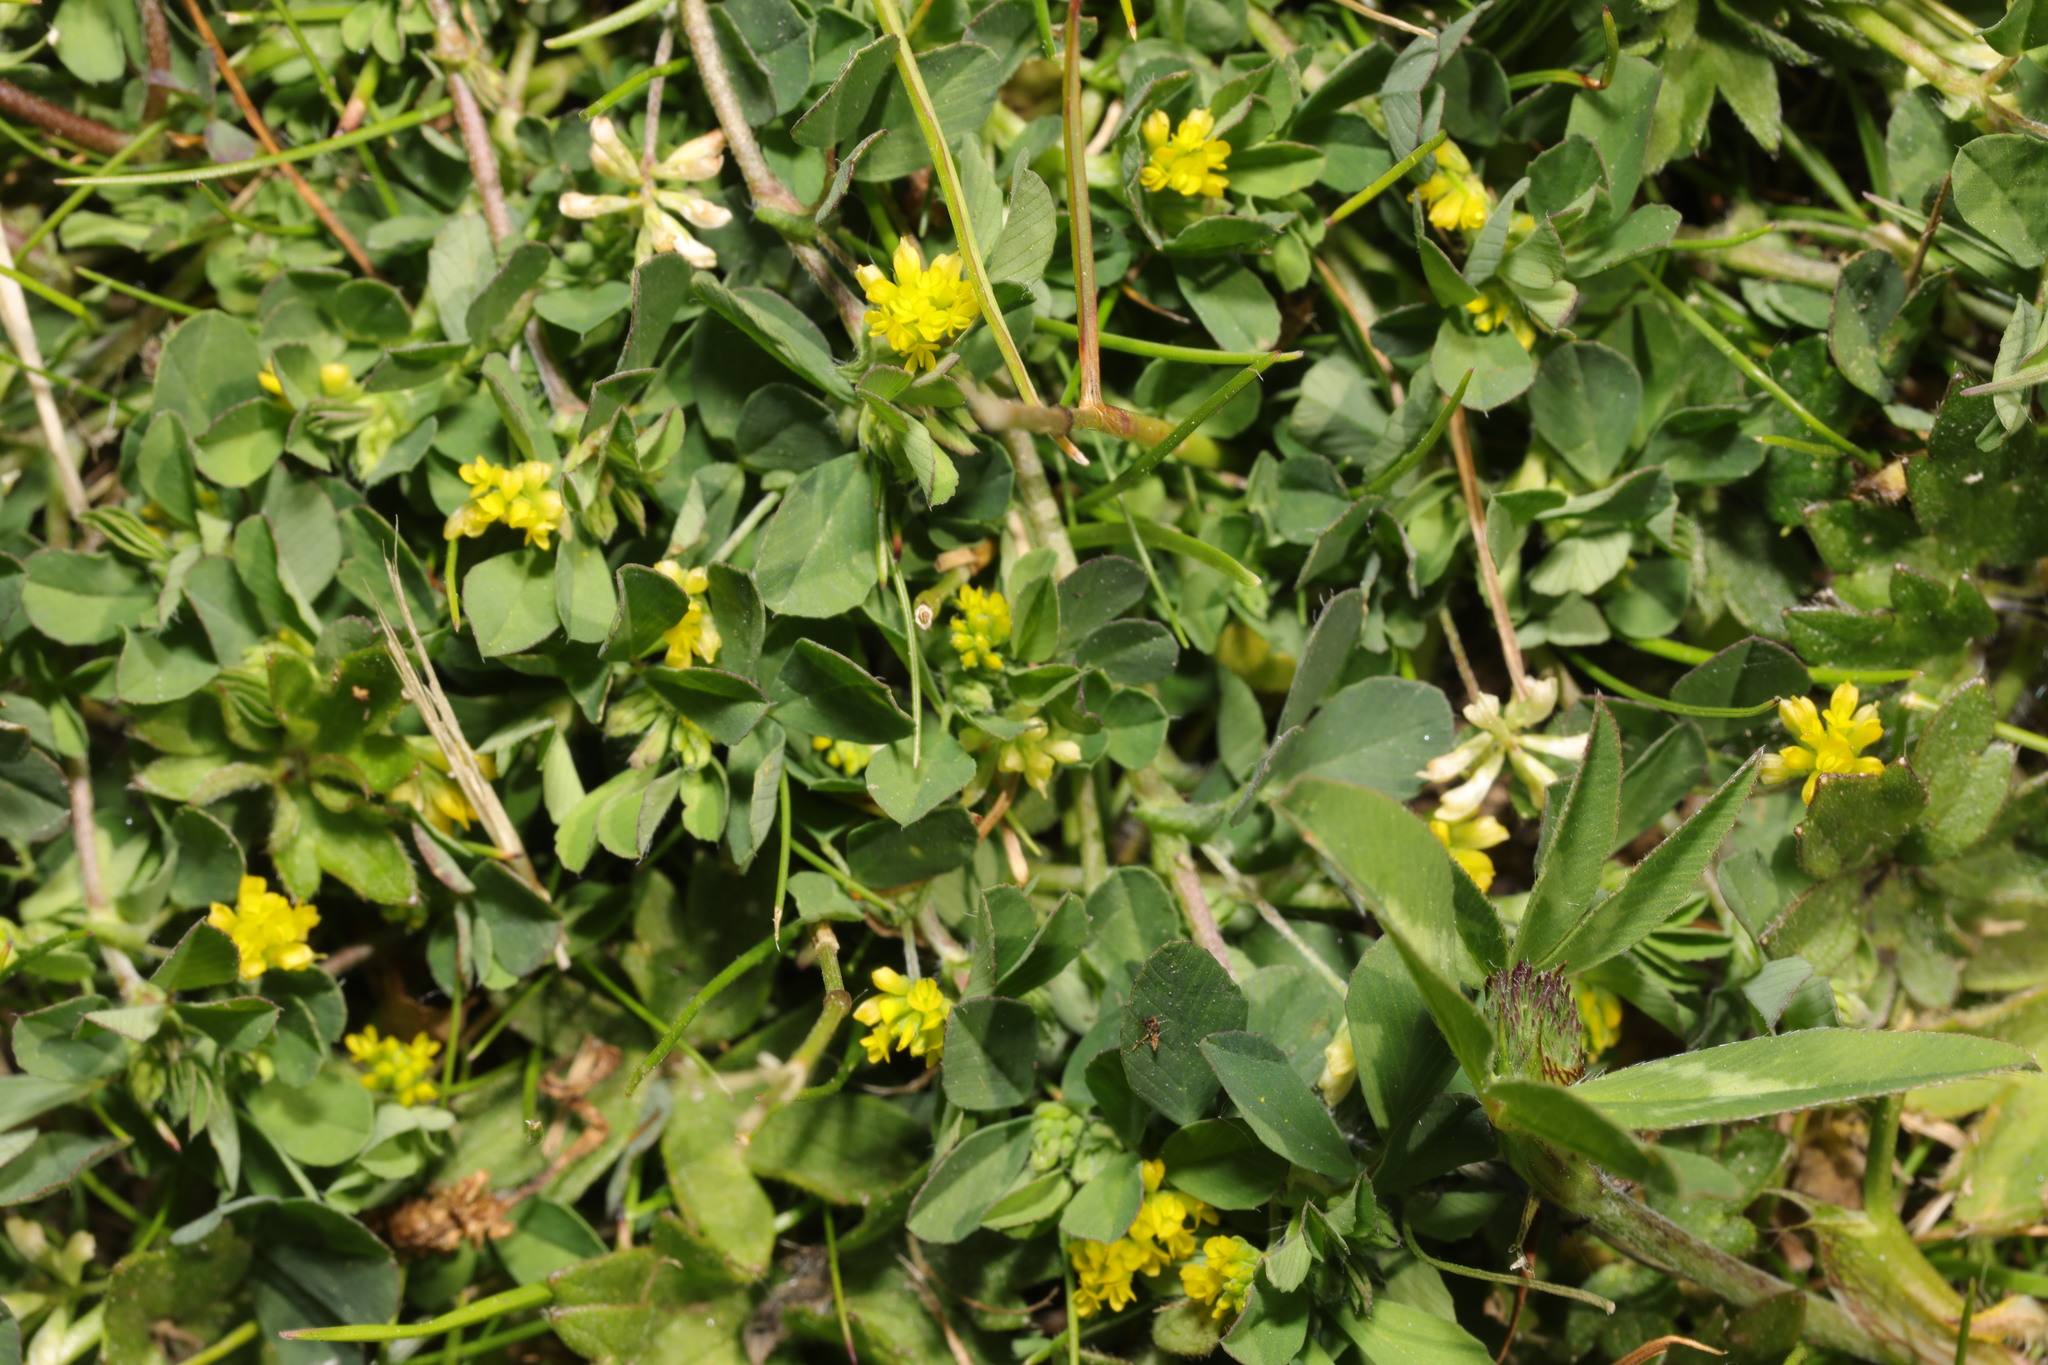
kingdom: Plantae
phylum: Tracheophyta
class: Magnoliopsida
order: Fabales
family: Fabaceae
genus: Trifolium
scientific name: Trifolium dubium
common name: Suckling clover
